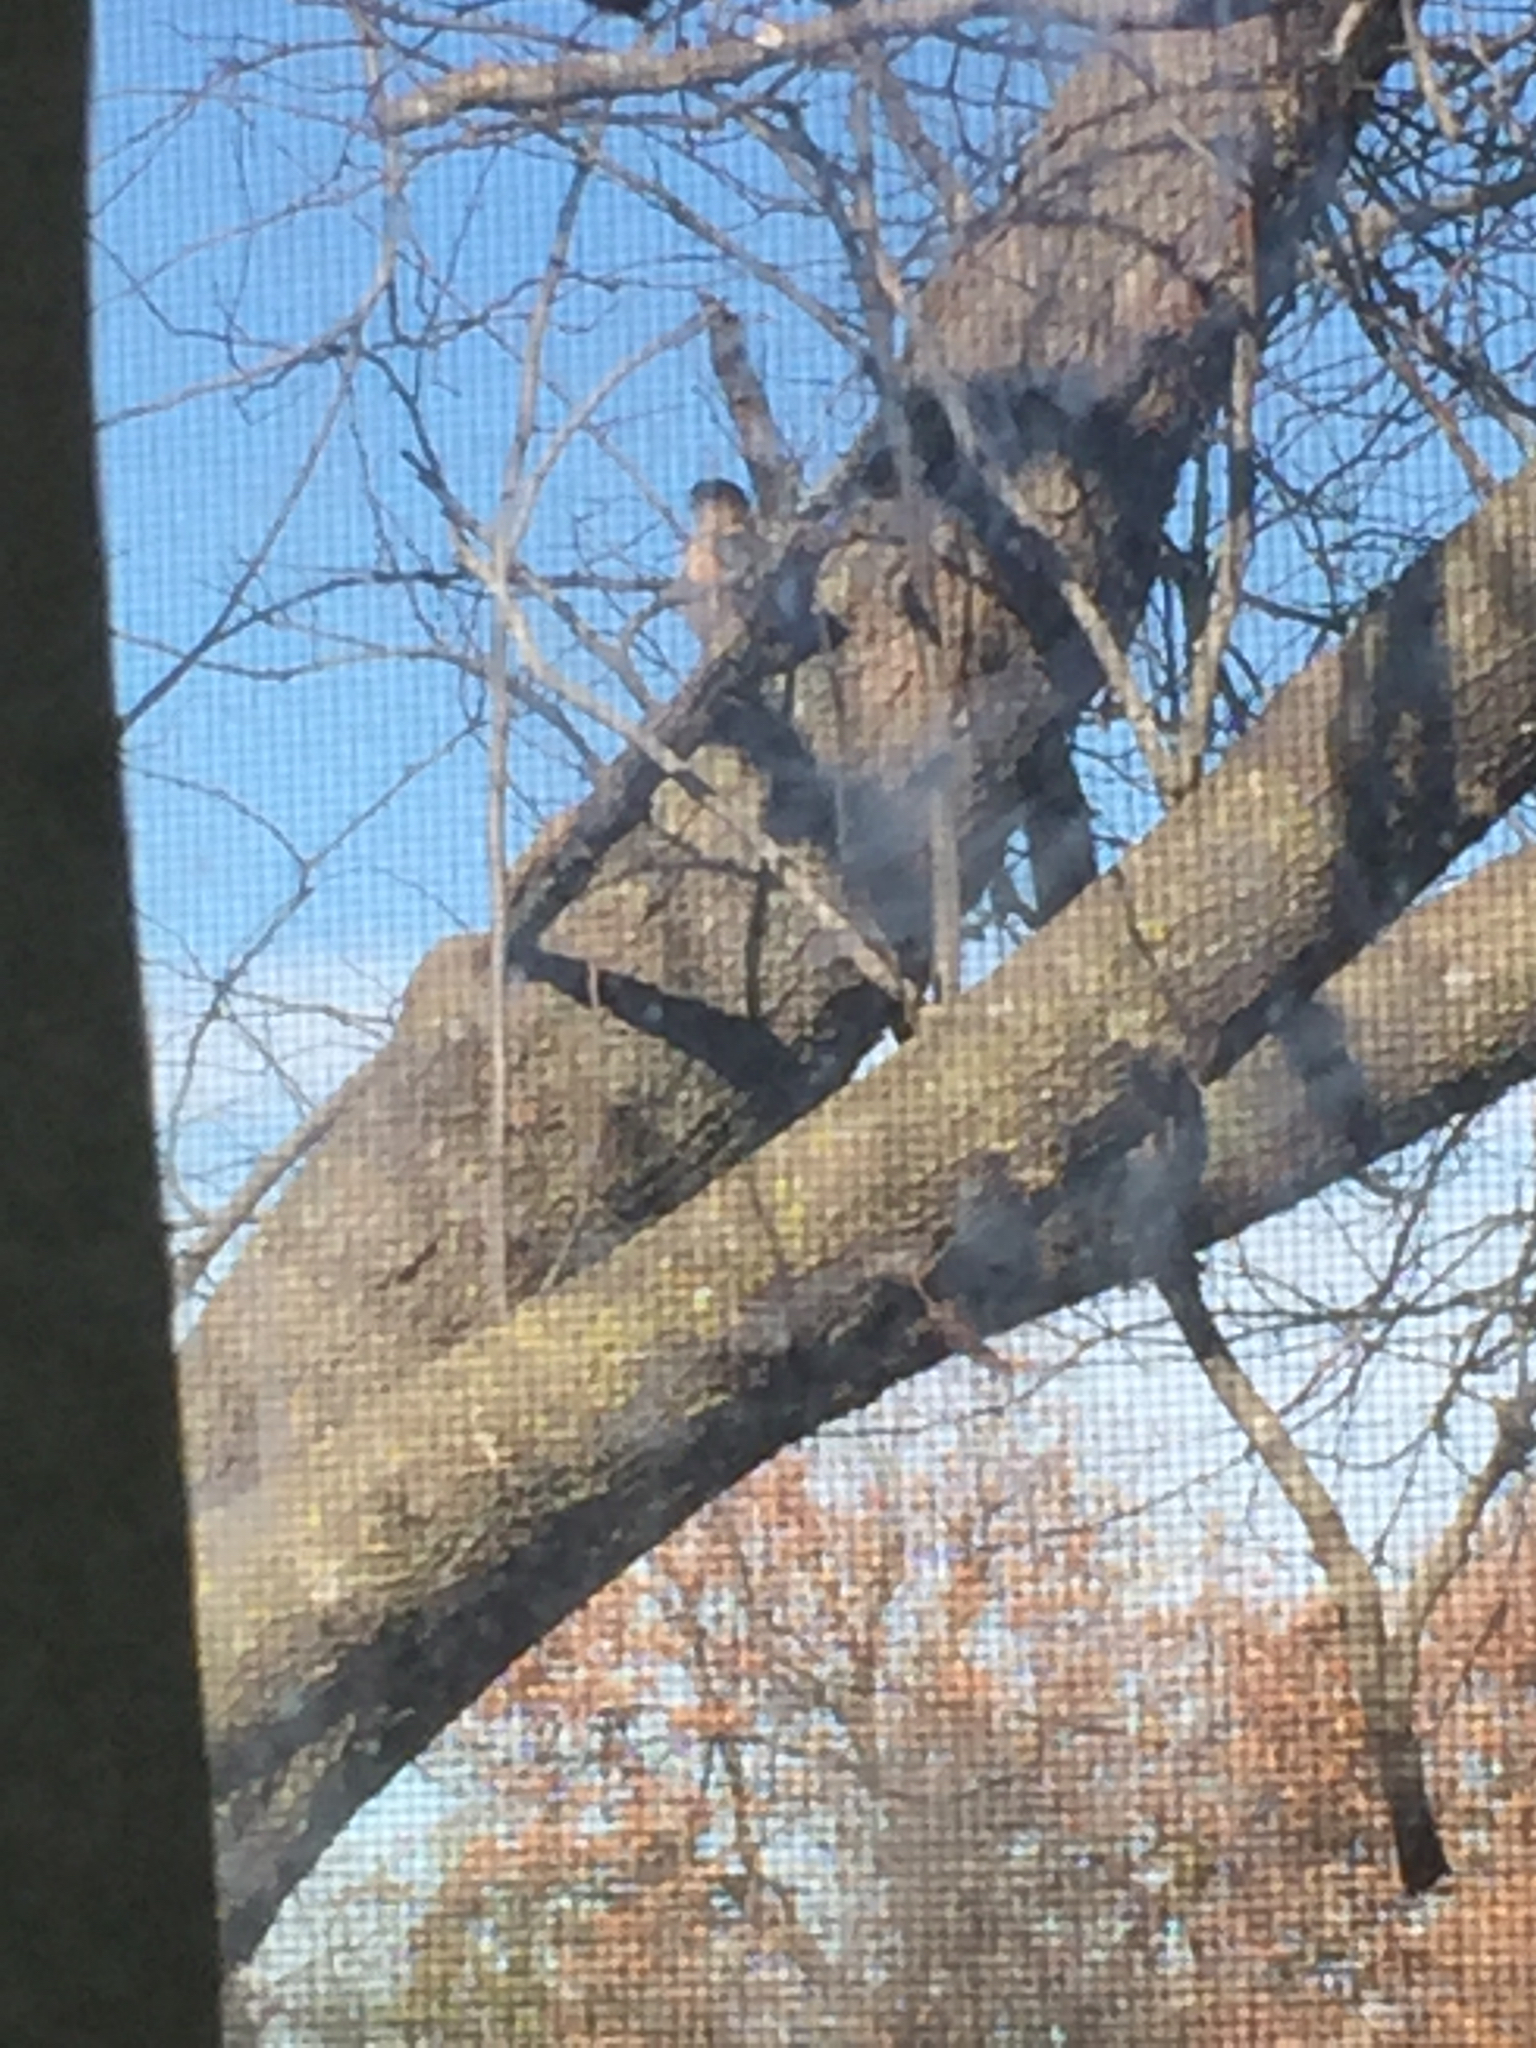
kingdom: Animalia
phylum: Chordata
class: Aves
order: Accipitriformes
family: Accipitridae
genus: Accipiter
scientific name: Accipiter cooperii
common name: Cooper's hawk
